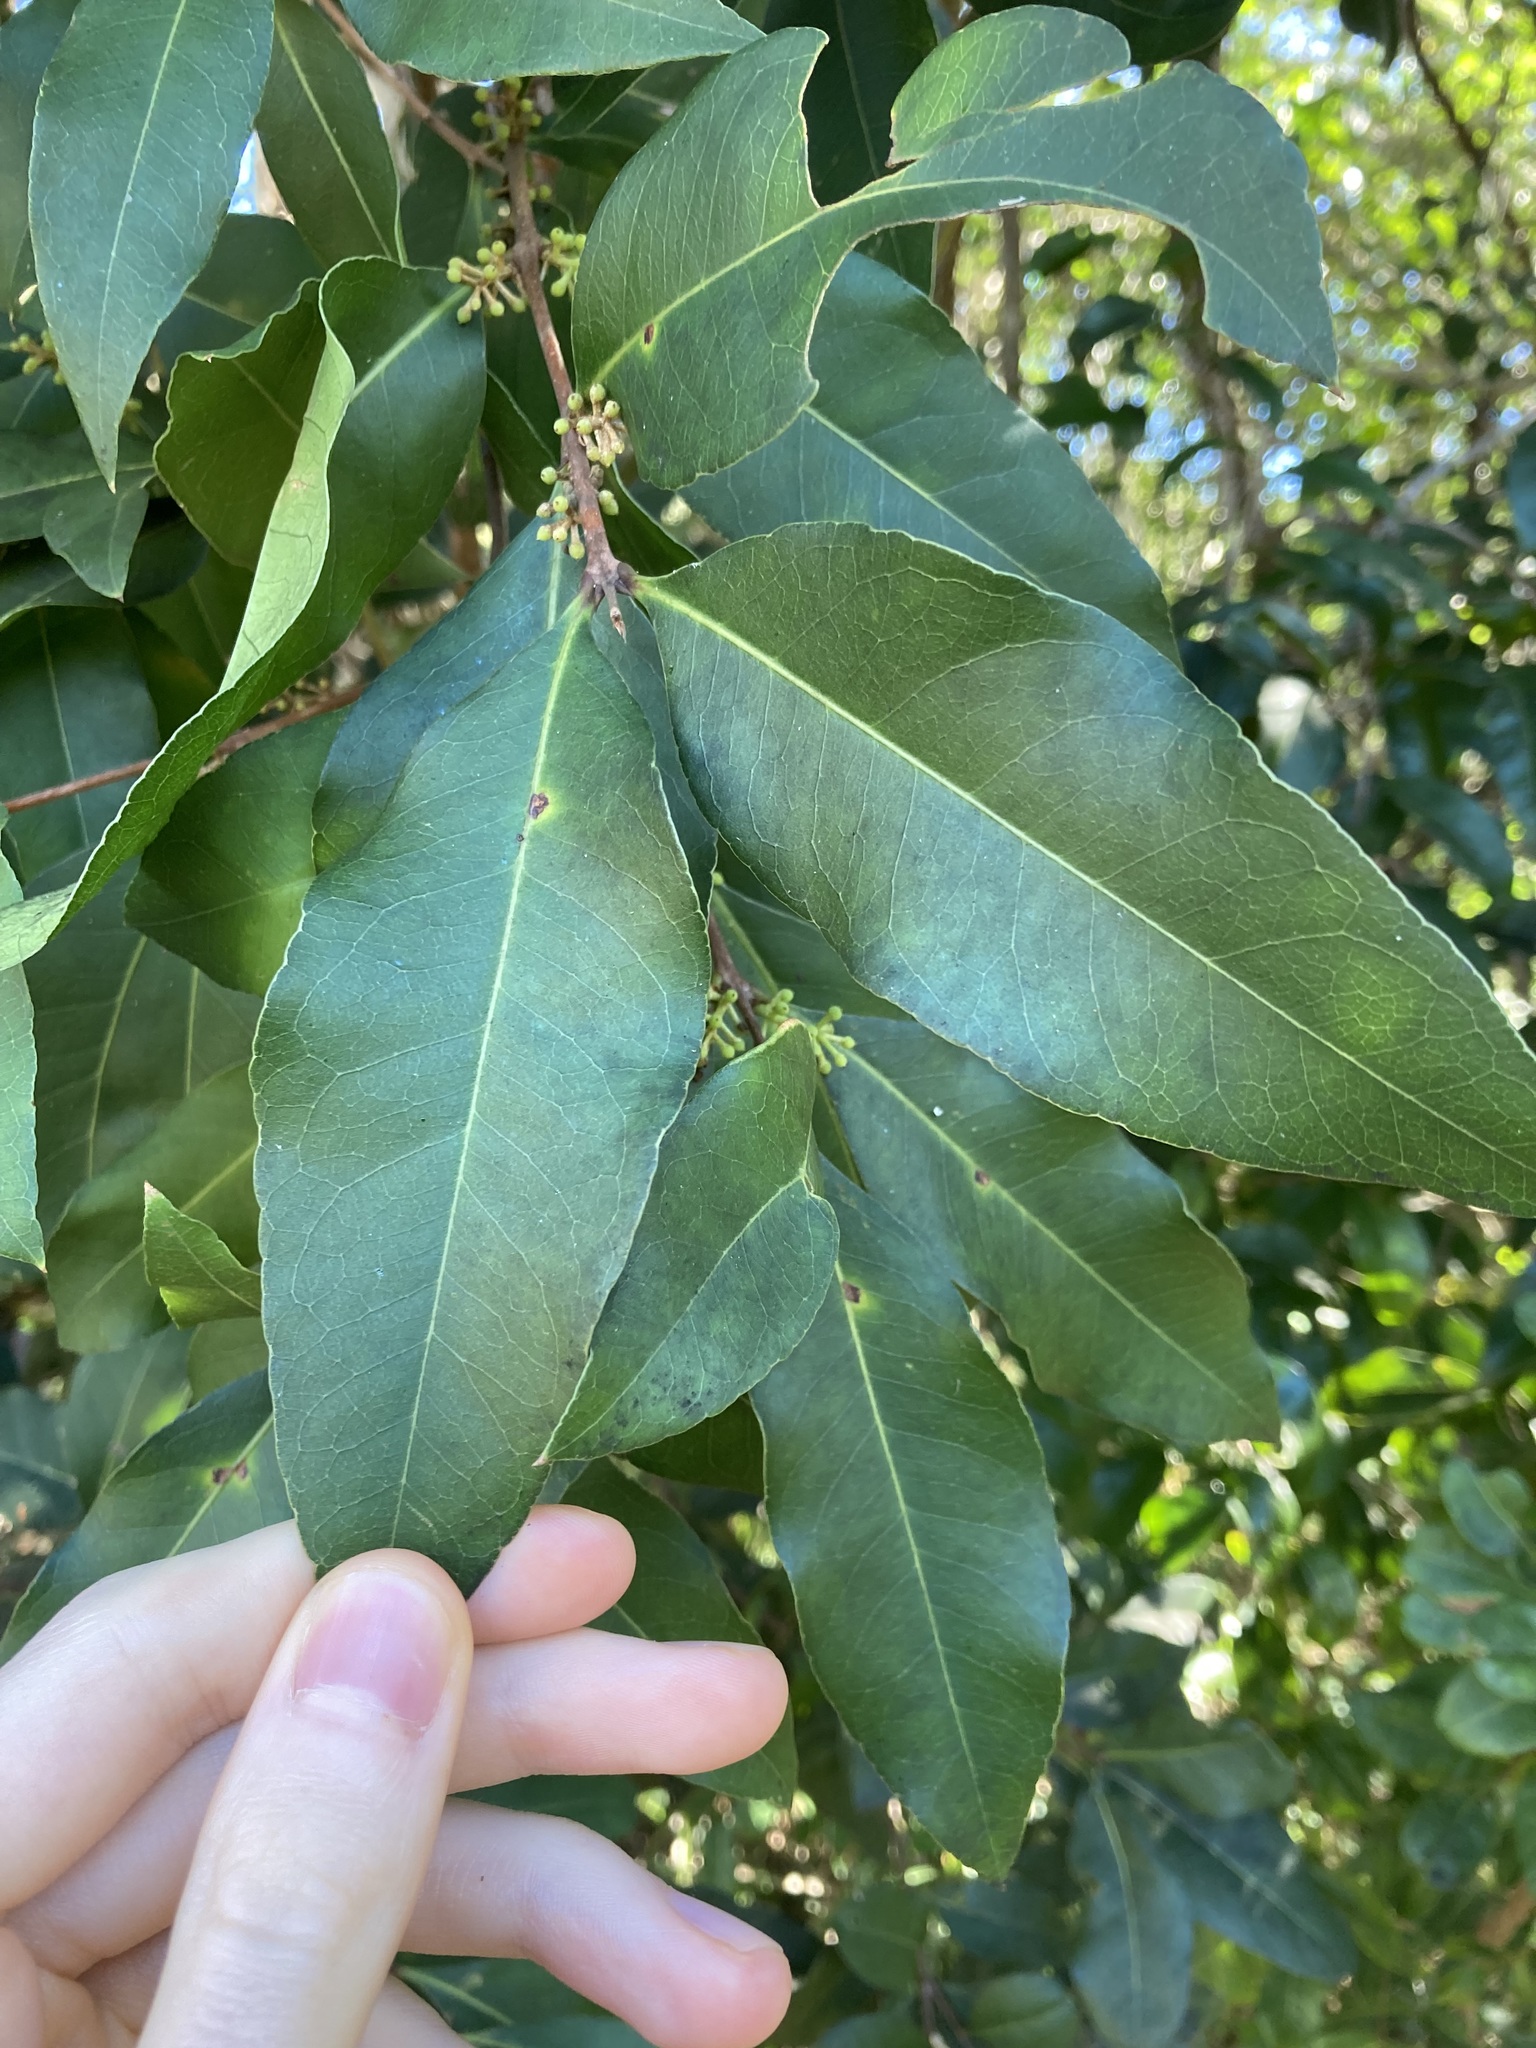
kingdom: Plantae
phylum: Tracheophyta
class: Magnoliopsida
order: Lamiales
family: Oleaceae
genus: Notelaea
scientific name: Notelaea longifolia
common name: Large mock olive
